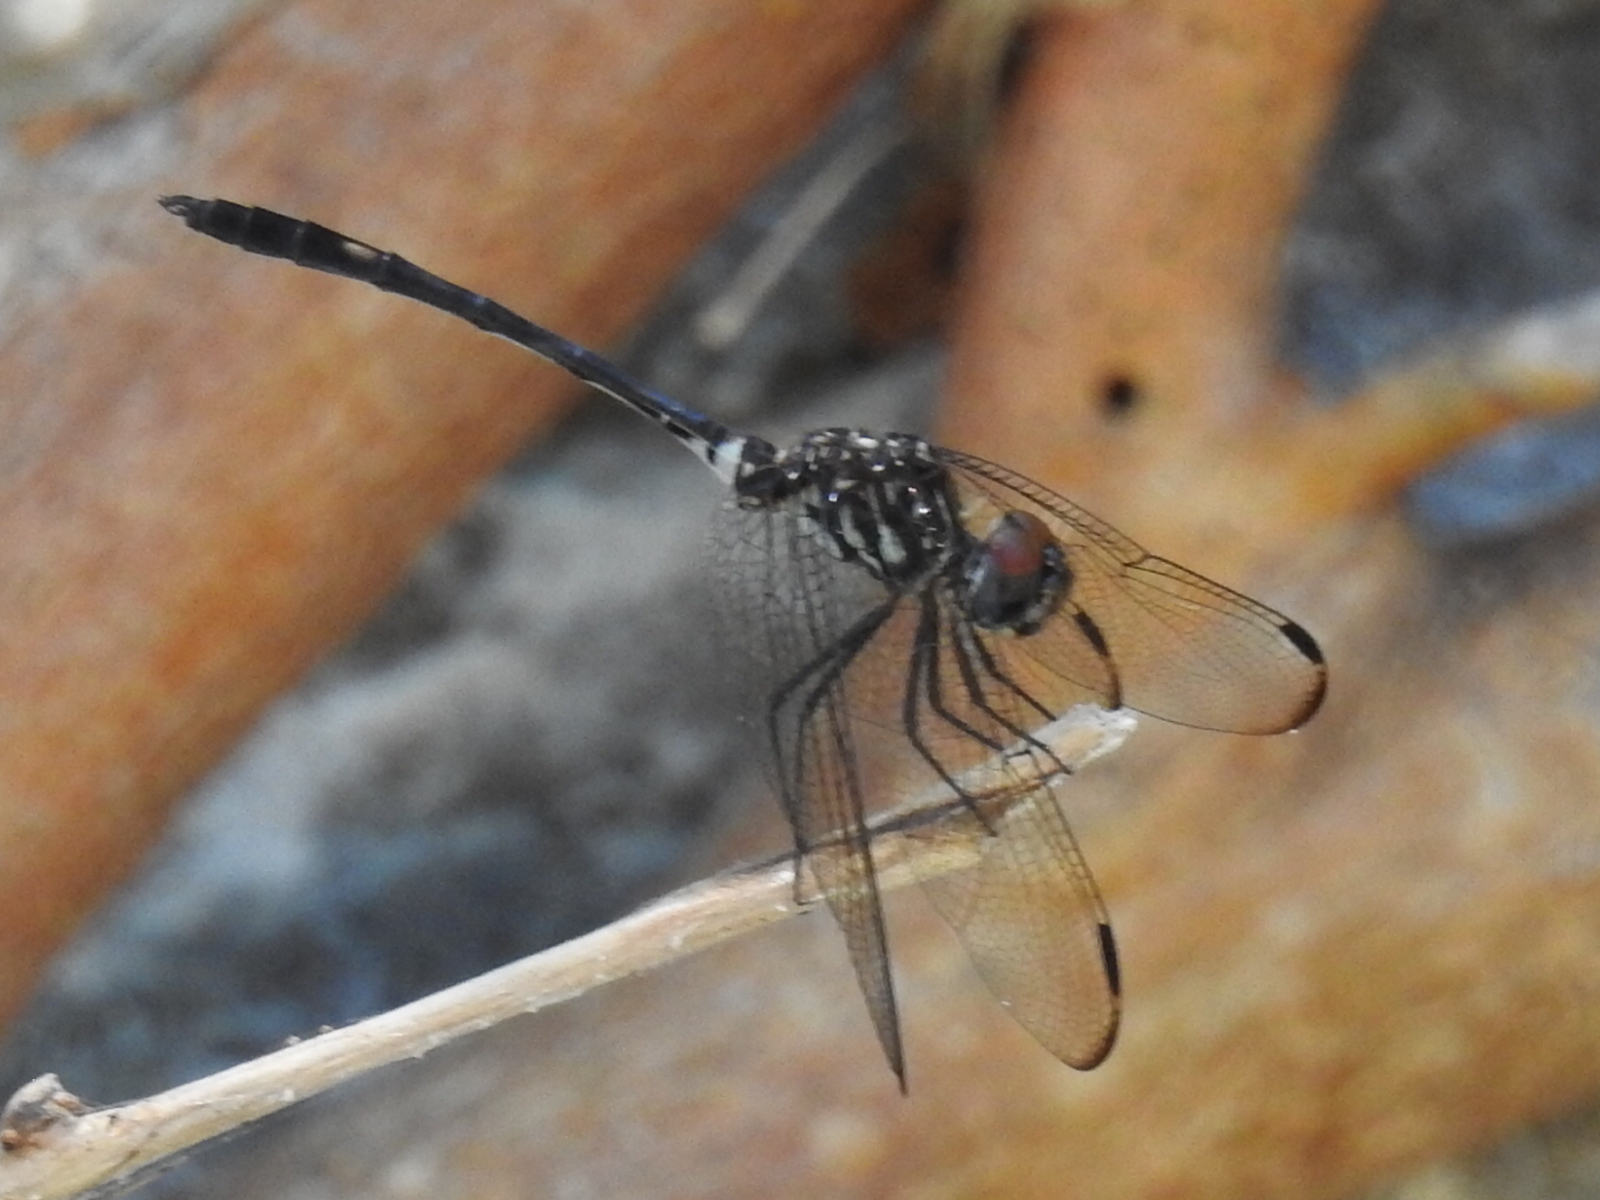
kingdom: Animalia
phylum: Arthropoda
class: Insecta
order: Odonata
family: Libellulidae
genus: Dythemis
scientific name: Dythemis velox
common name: Swift setwing
